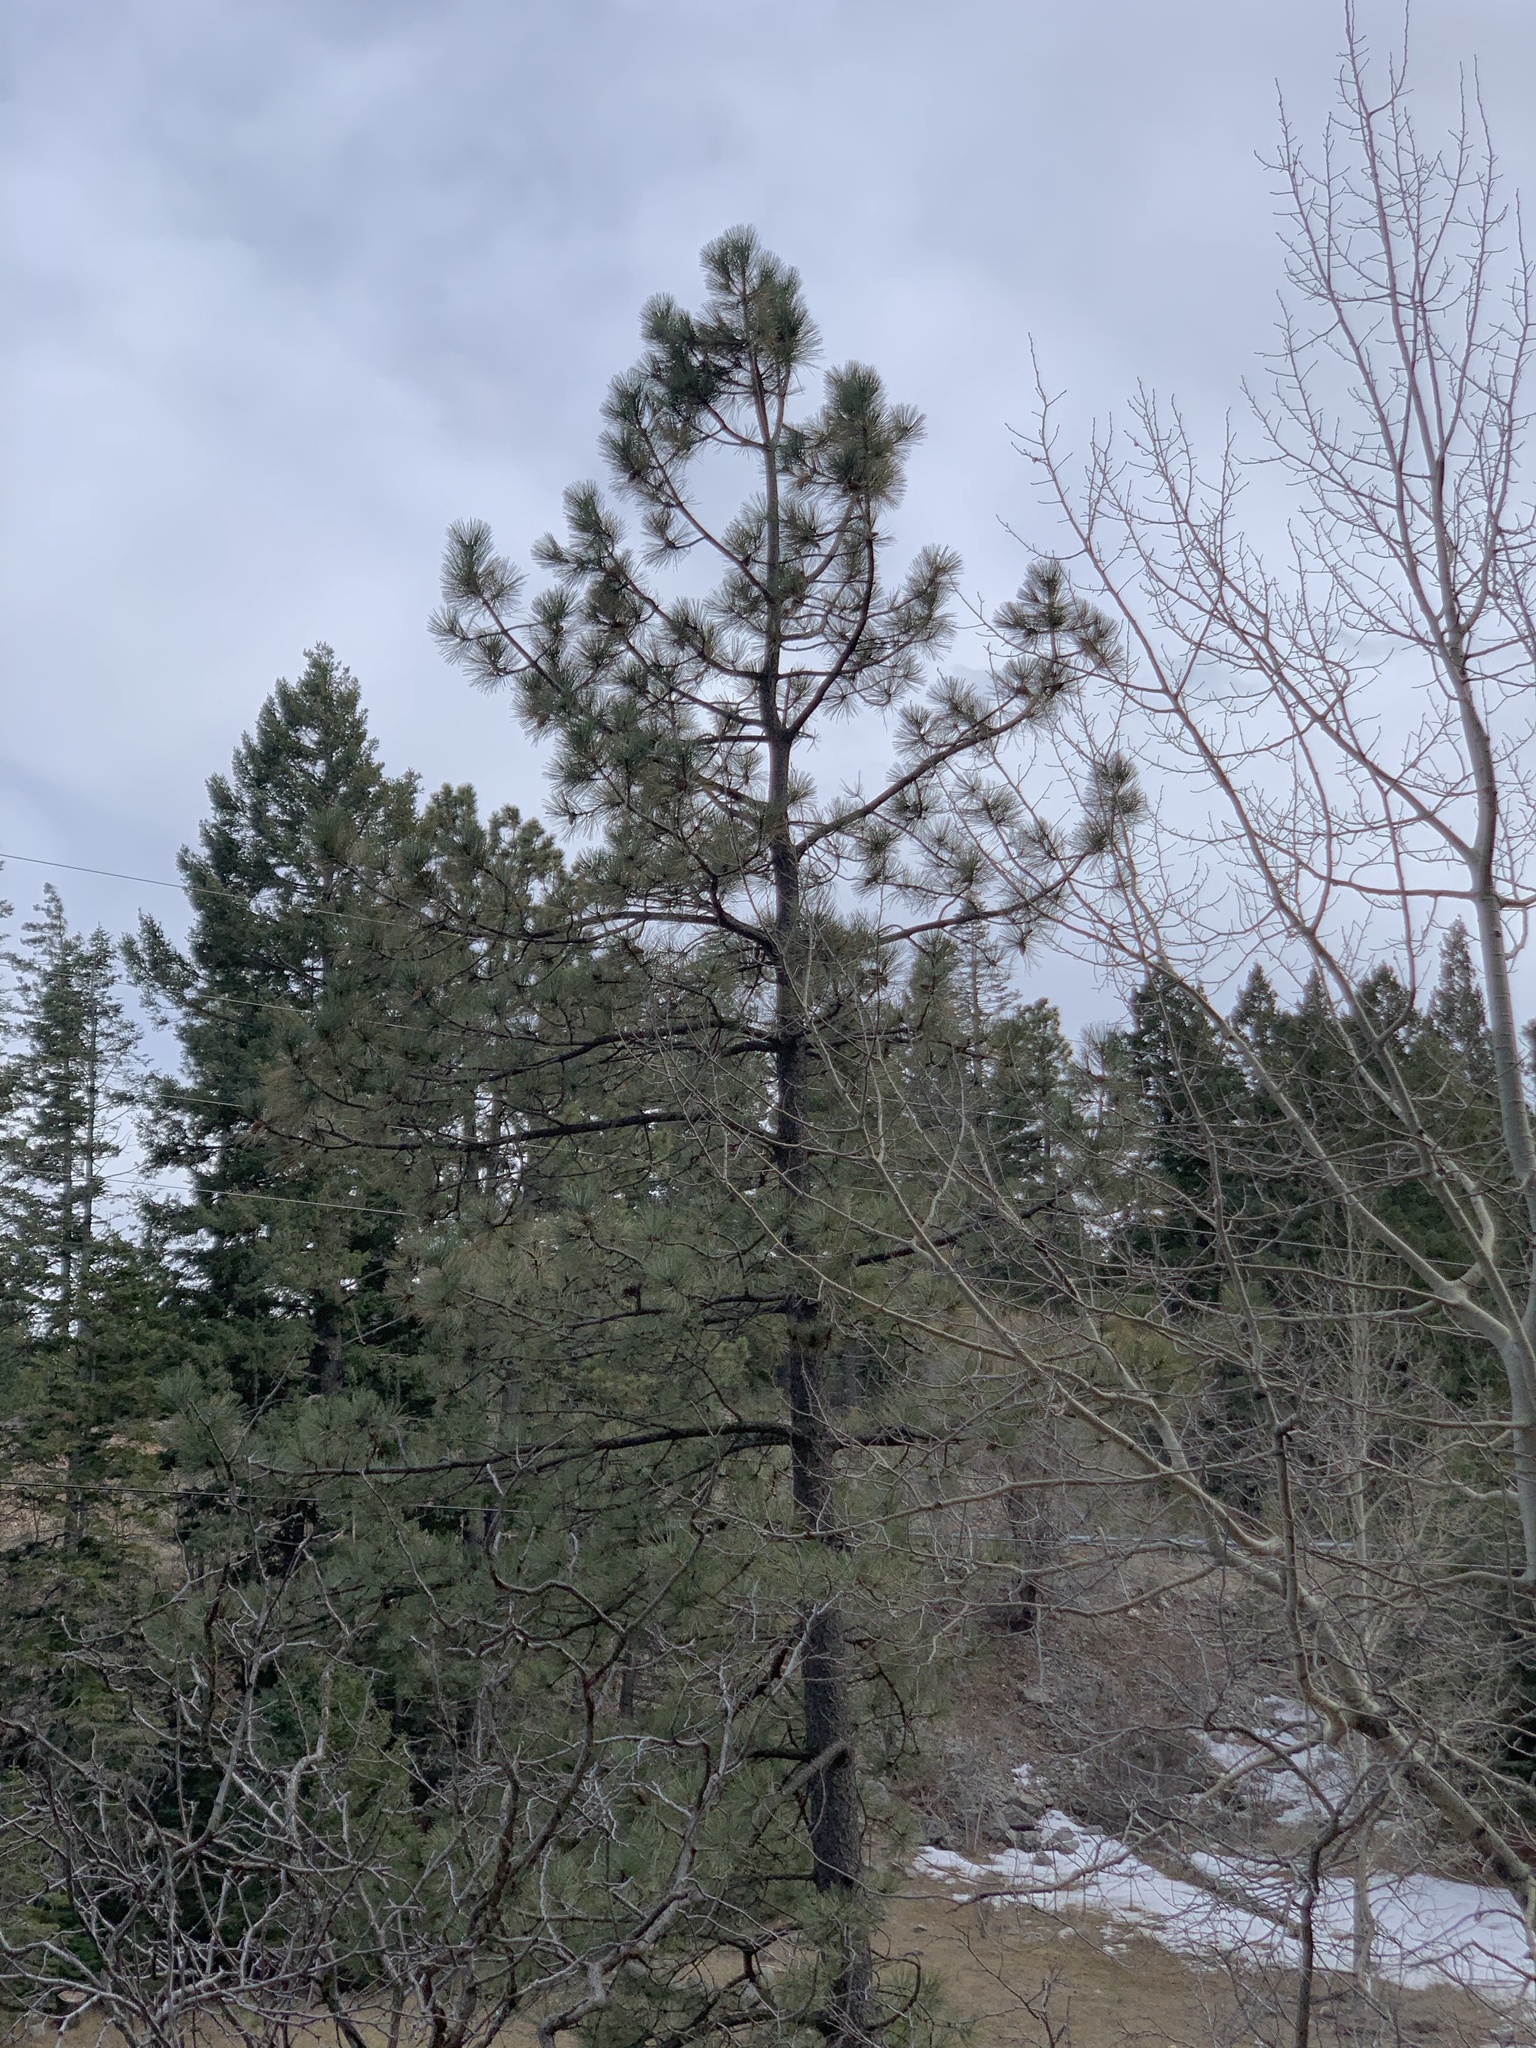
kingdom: Plantae
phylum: Tracheophyta
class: Pinopsida
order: Pinales
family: Pinaceae
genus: Pinus
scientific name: Pinus ponderosa
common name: Western yellow-pine
